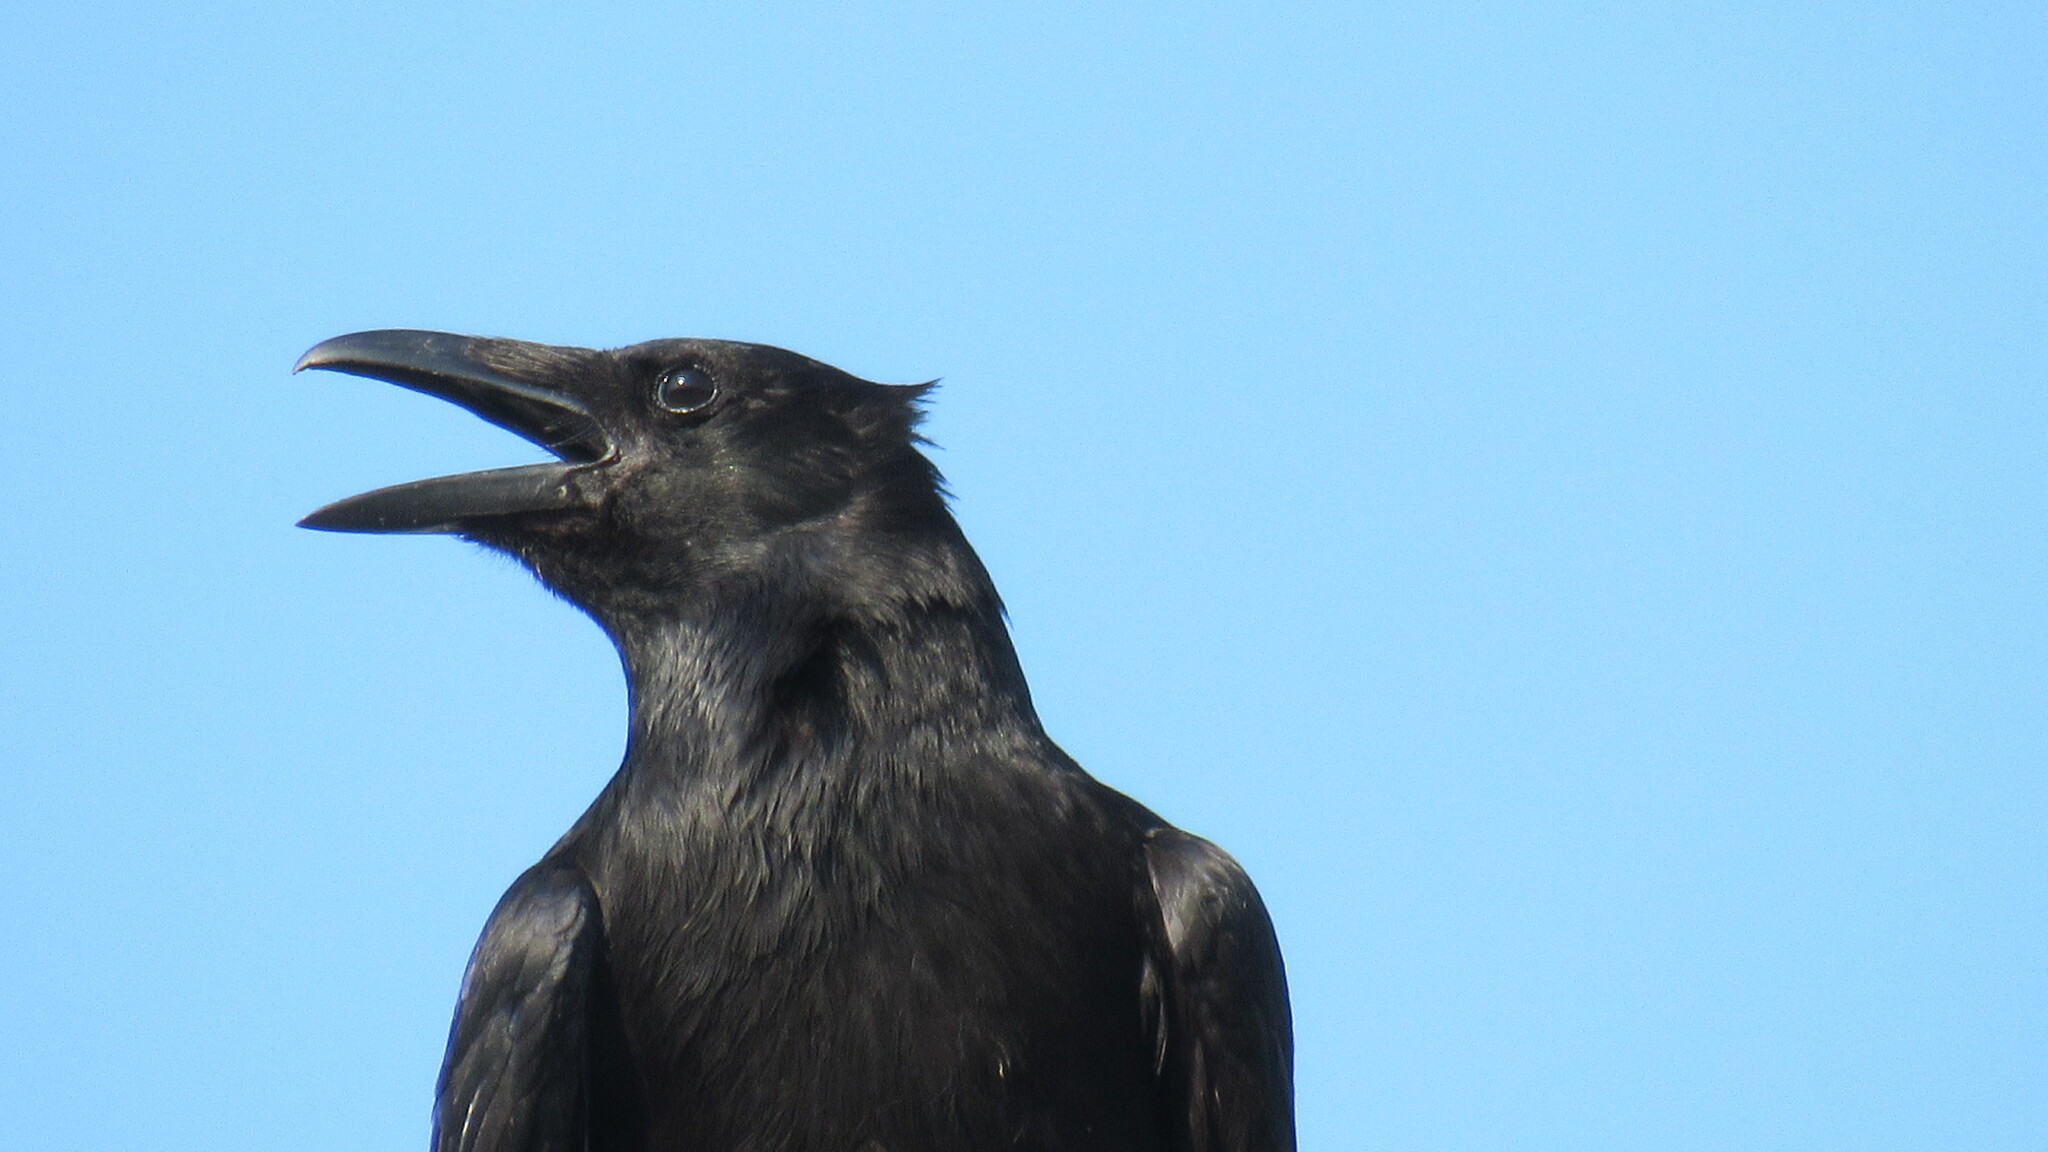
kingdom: Animalia
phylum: Chordata
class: Aves
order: Passeriformes
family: Corvidae
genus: Corvus
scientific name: Corvus corone
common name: Carrion crow
